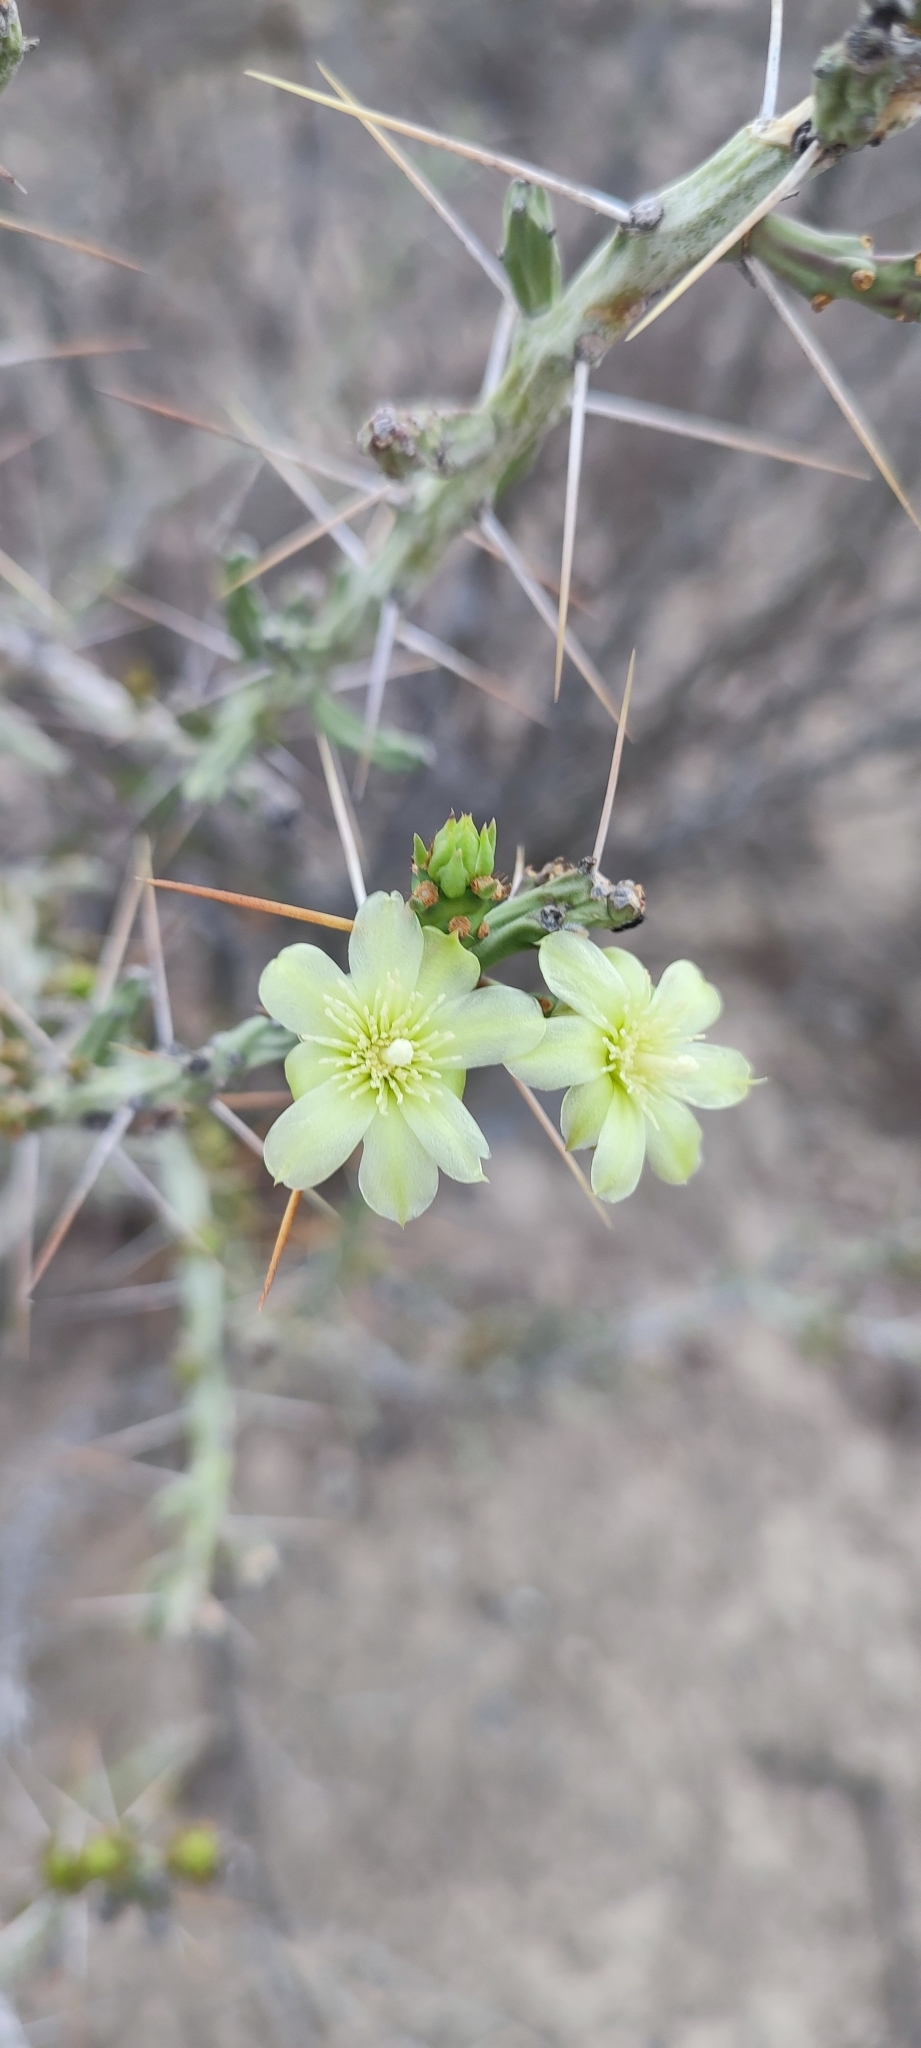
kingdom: Plantae
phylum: Tracheophyta
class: Magnoliopsida
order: Caryophyllales
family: Cactaceae
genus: Cylindropuntia
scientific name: Cylindropuntia leptocaulis
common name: Christmas cactus
